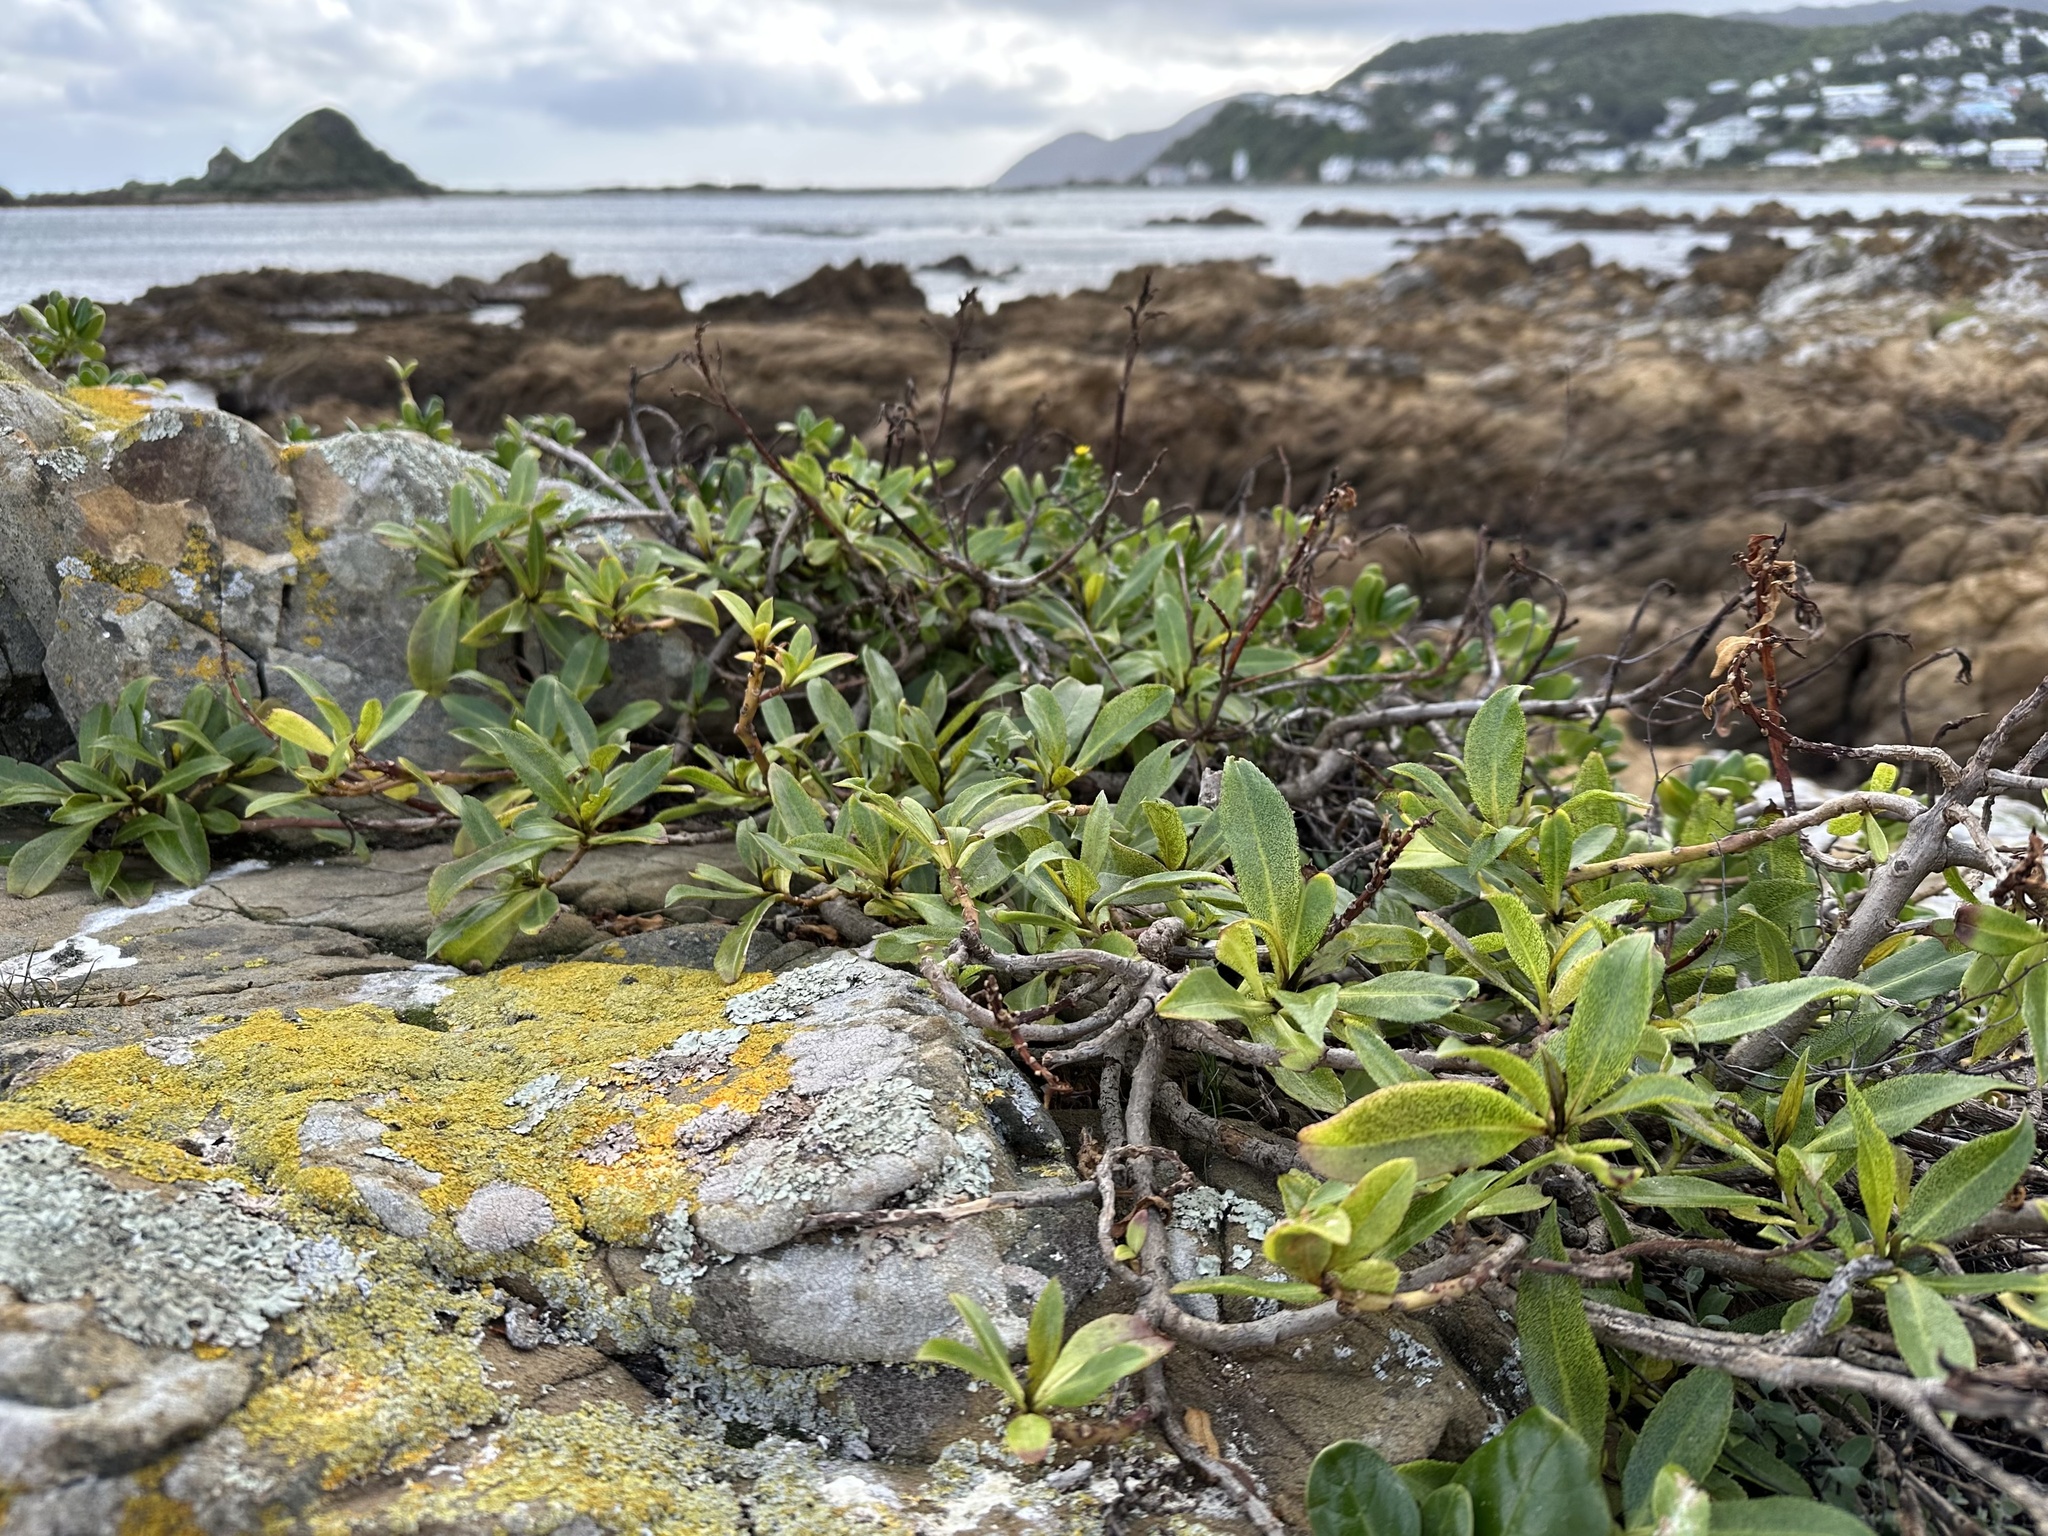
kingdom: Plantae
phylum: Tracheophyta
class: Magnoliopsida
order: Lamiales
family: Scrophulariaceae
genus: Myoporum
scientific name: Myoporum laetum
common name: Ngaio tree
